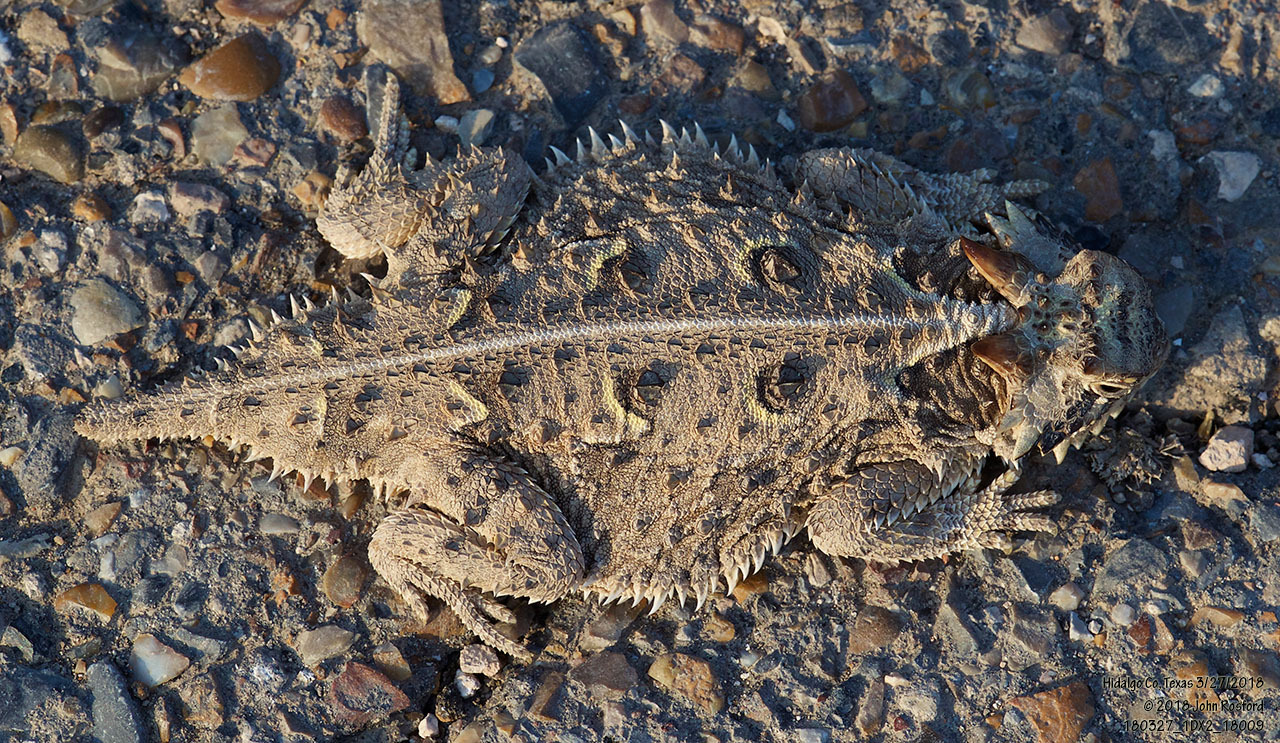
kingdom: Animalia
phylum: Chordata
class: Squamata
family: Phrynosomatidae
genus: Phrynosoma
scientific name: Phrynosoma cornutum
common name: Texas horned lizard
